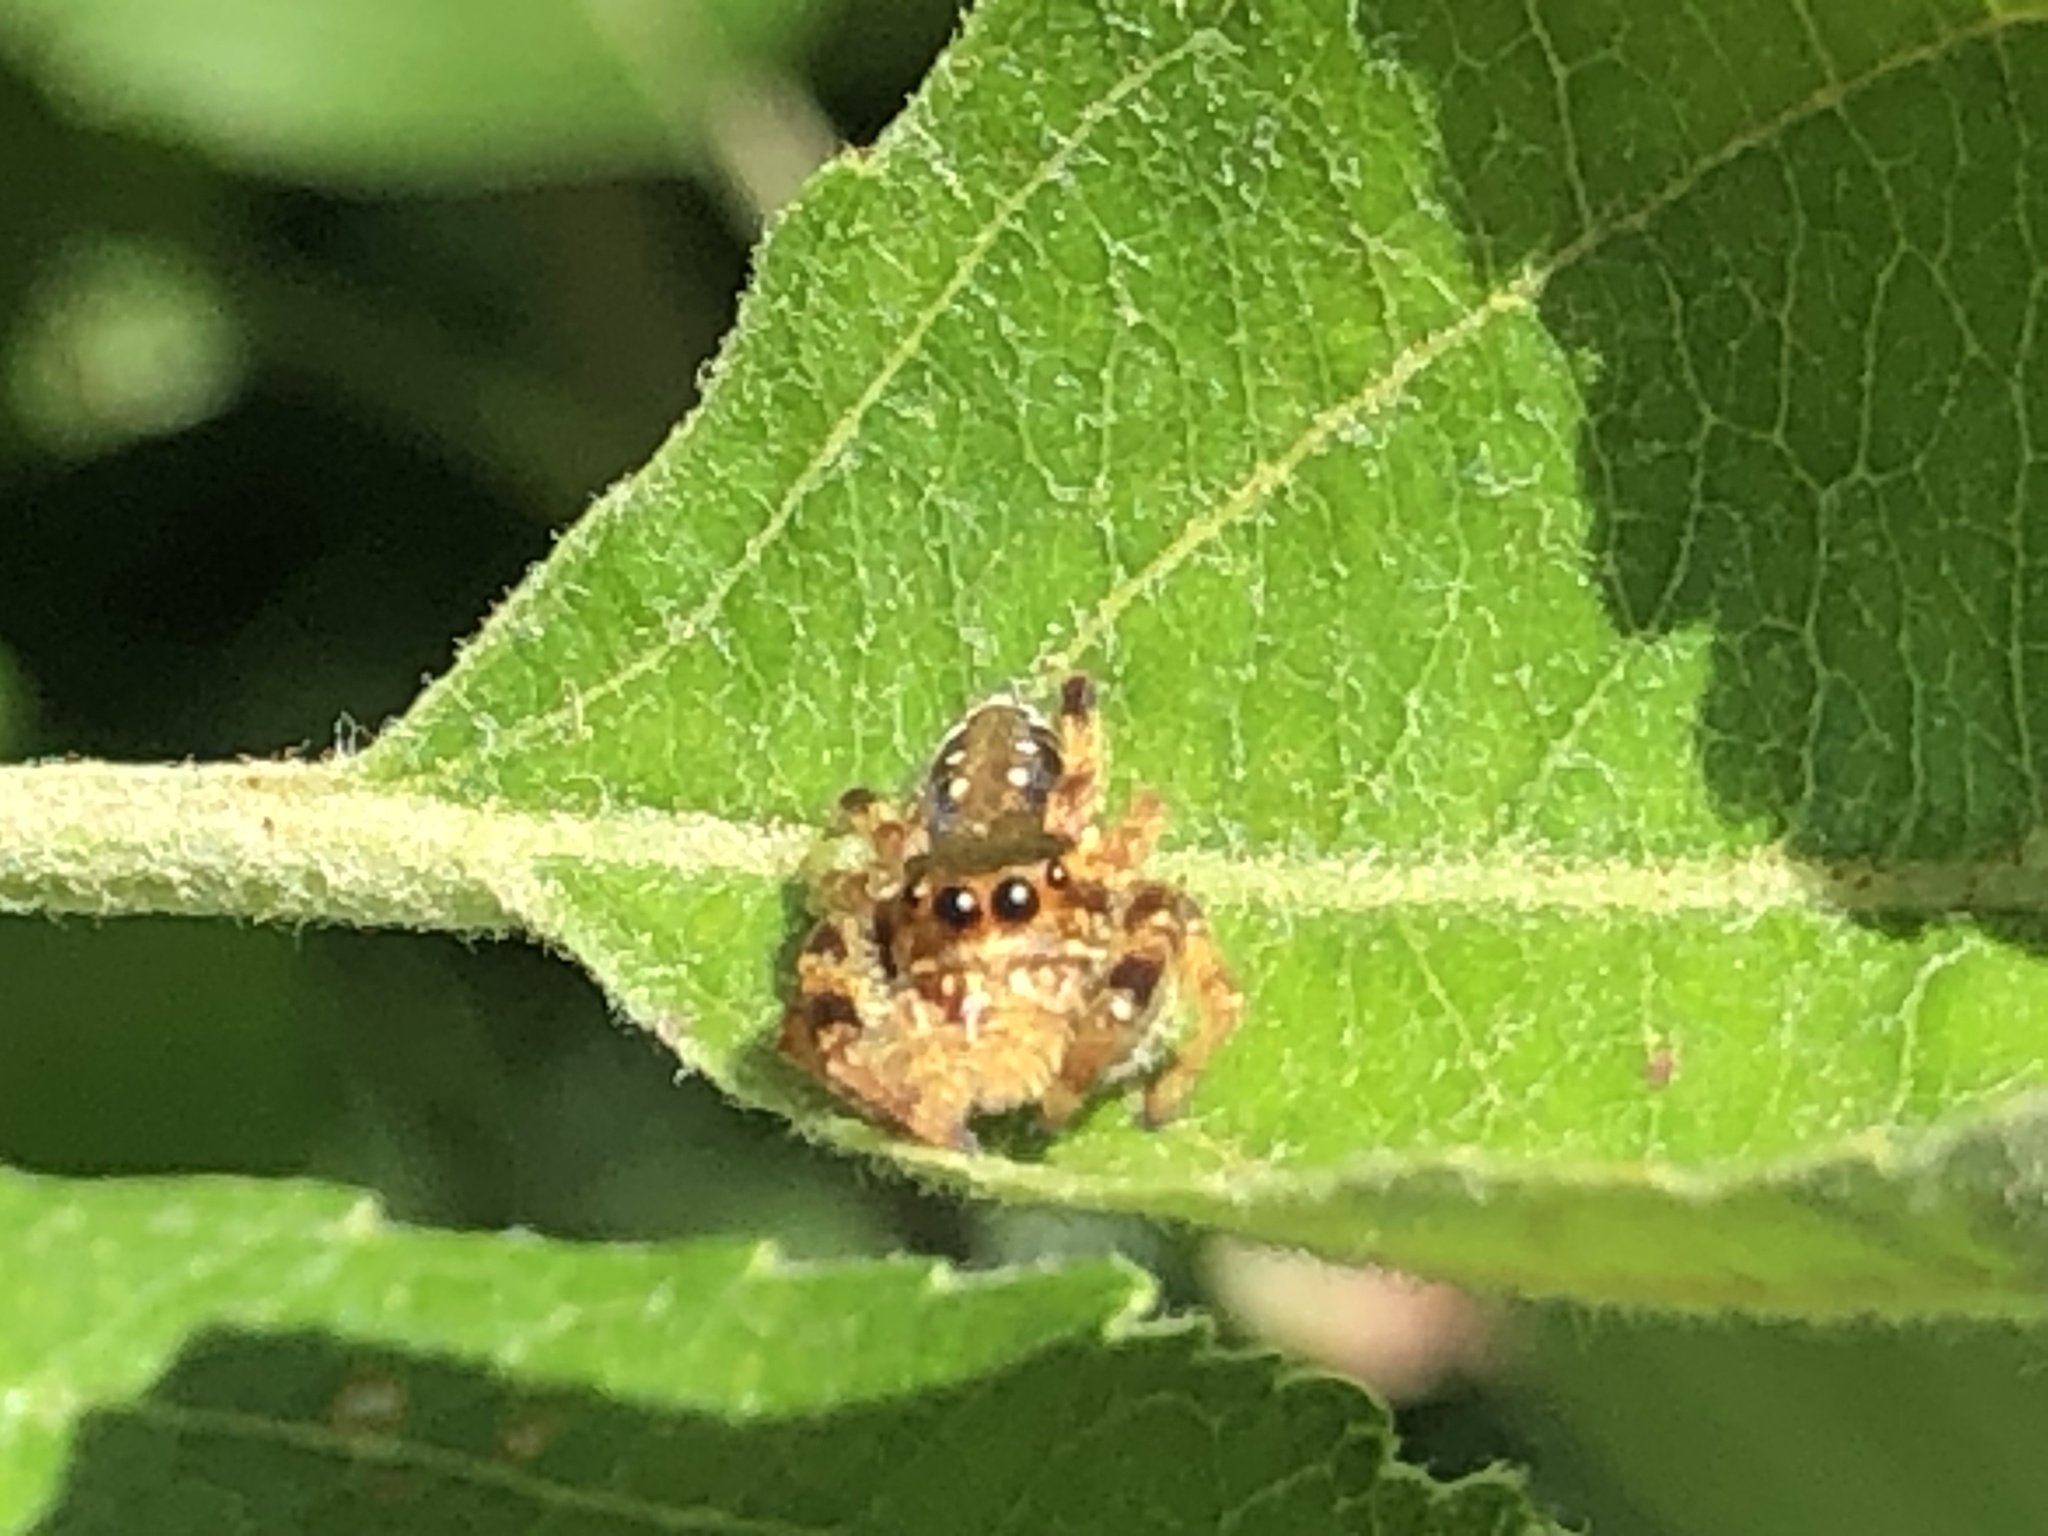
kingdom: Animalia
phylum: Arthropoda
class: Arachnida
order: Araneae
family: Salticidae
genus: Paraphidippus
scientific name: Paraphidippus aurantius
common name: Jumping spiders
